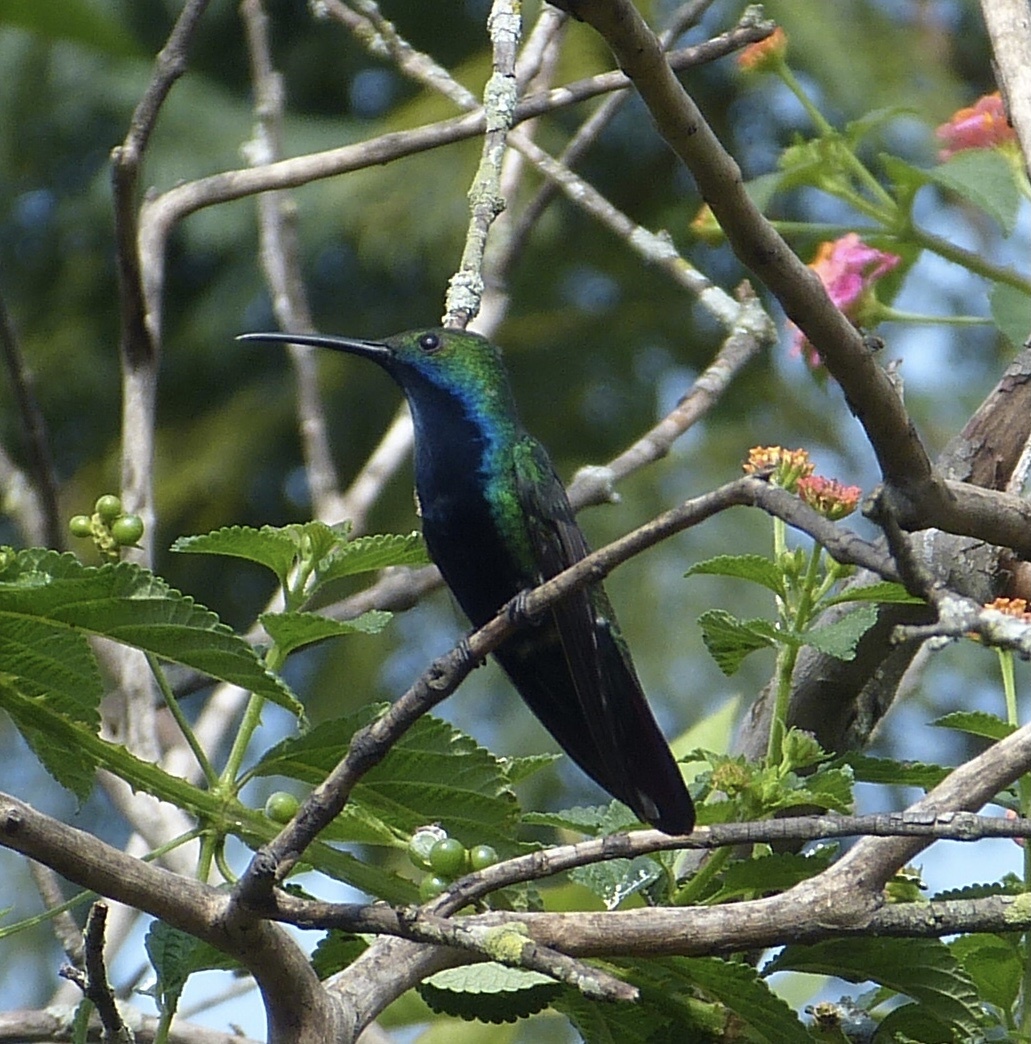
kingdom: Animalia
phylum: Chordata
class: Aves
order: Apodiformes
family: Trochilidae
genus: Anthracothorax
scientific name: Anthracothorax nigricollis
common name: Black-throated mango
